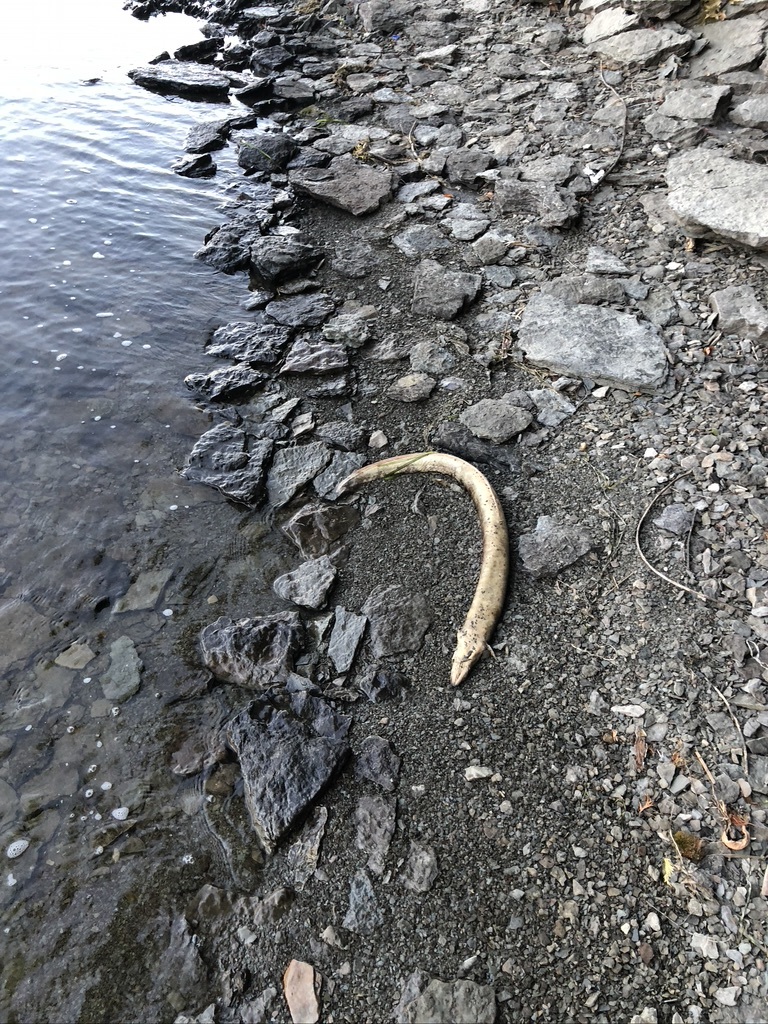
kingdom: Animalia
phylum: Chordata
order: Anguilliformes
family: Anguillidae
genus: Anguilla
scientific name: Anguilla rostrata
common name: American eel
